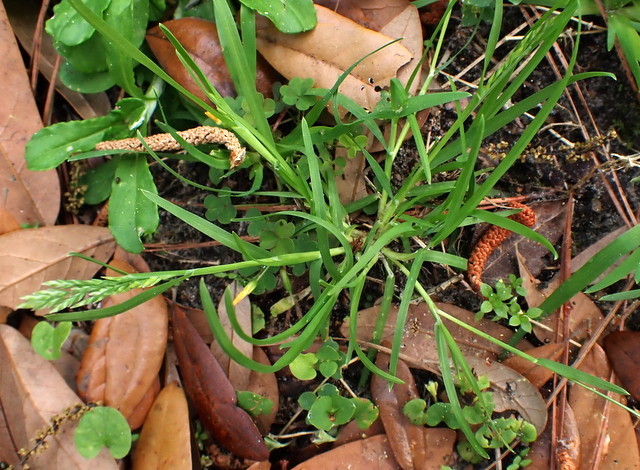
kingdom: Plantae
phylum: Tracheophyta
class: Liliopsida
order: Poales
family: Poaceae
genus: Poa
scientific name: Poa annua
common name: Annual bluegrass
